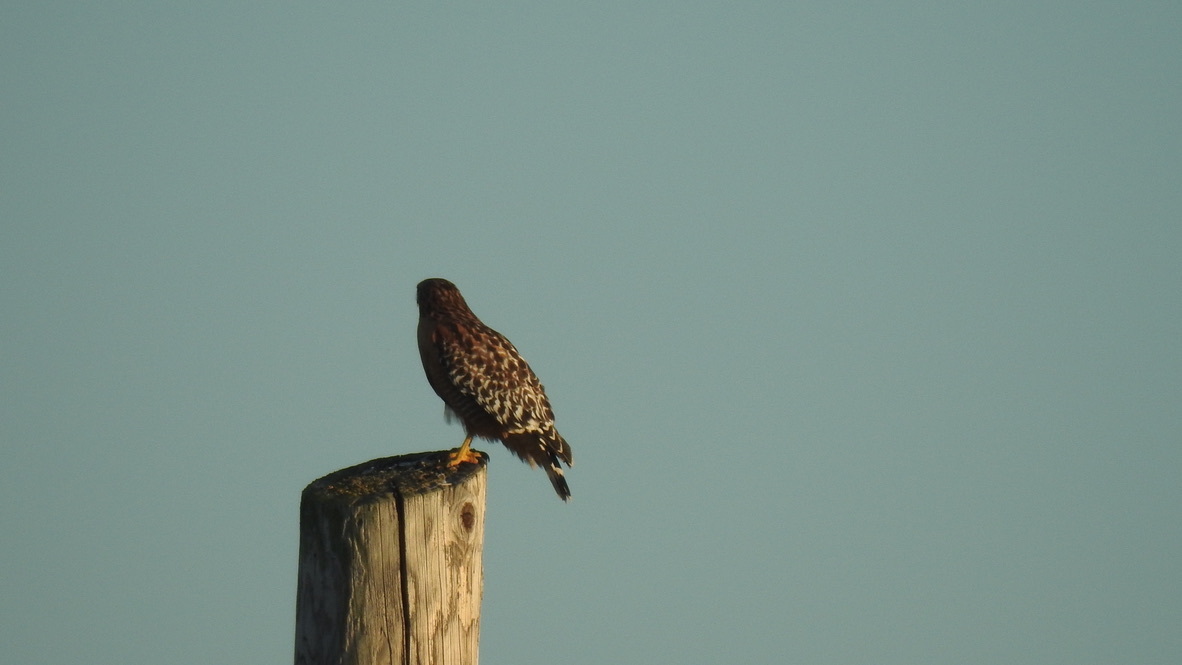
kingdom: Animalia
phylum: Chordata
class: Aves
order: Accipitriformes
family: Accipitridae
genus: Buteo
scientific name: Buteo lineatus
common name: Red-shouldered hawk
